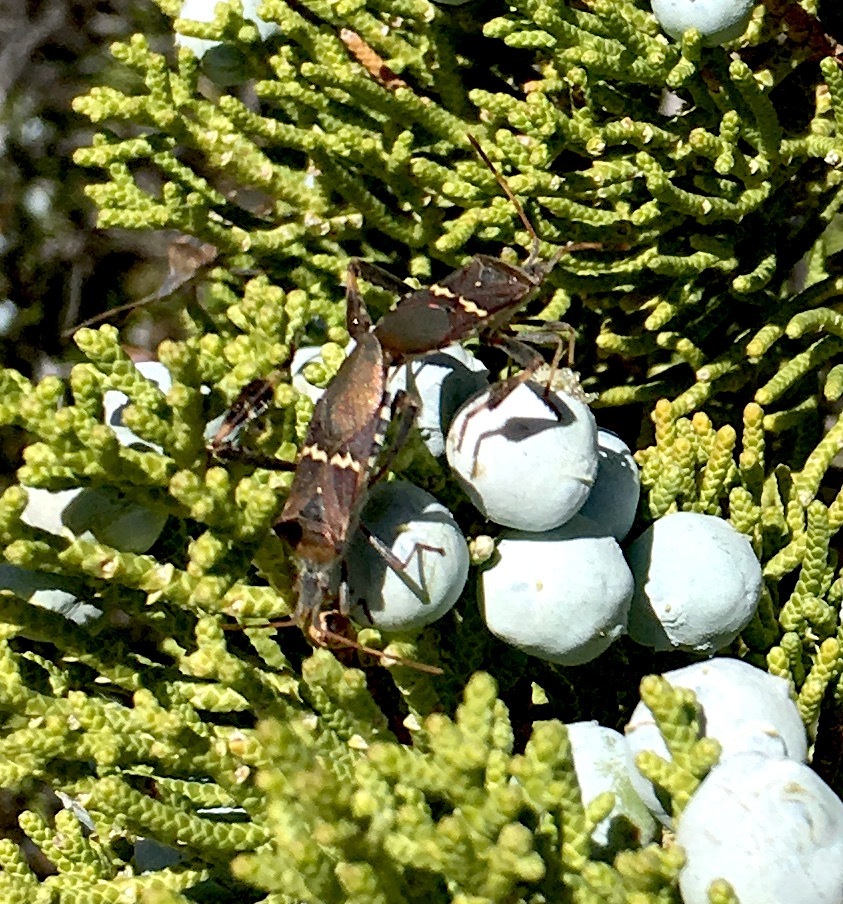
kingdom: Animalia
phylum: Arthropoda
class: Insecta
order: Hemiptera
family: Coreidae
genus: Leptoglossus
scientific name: Leptoglossus clypealis
